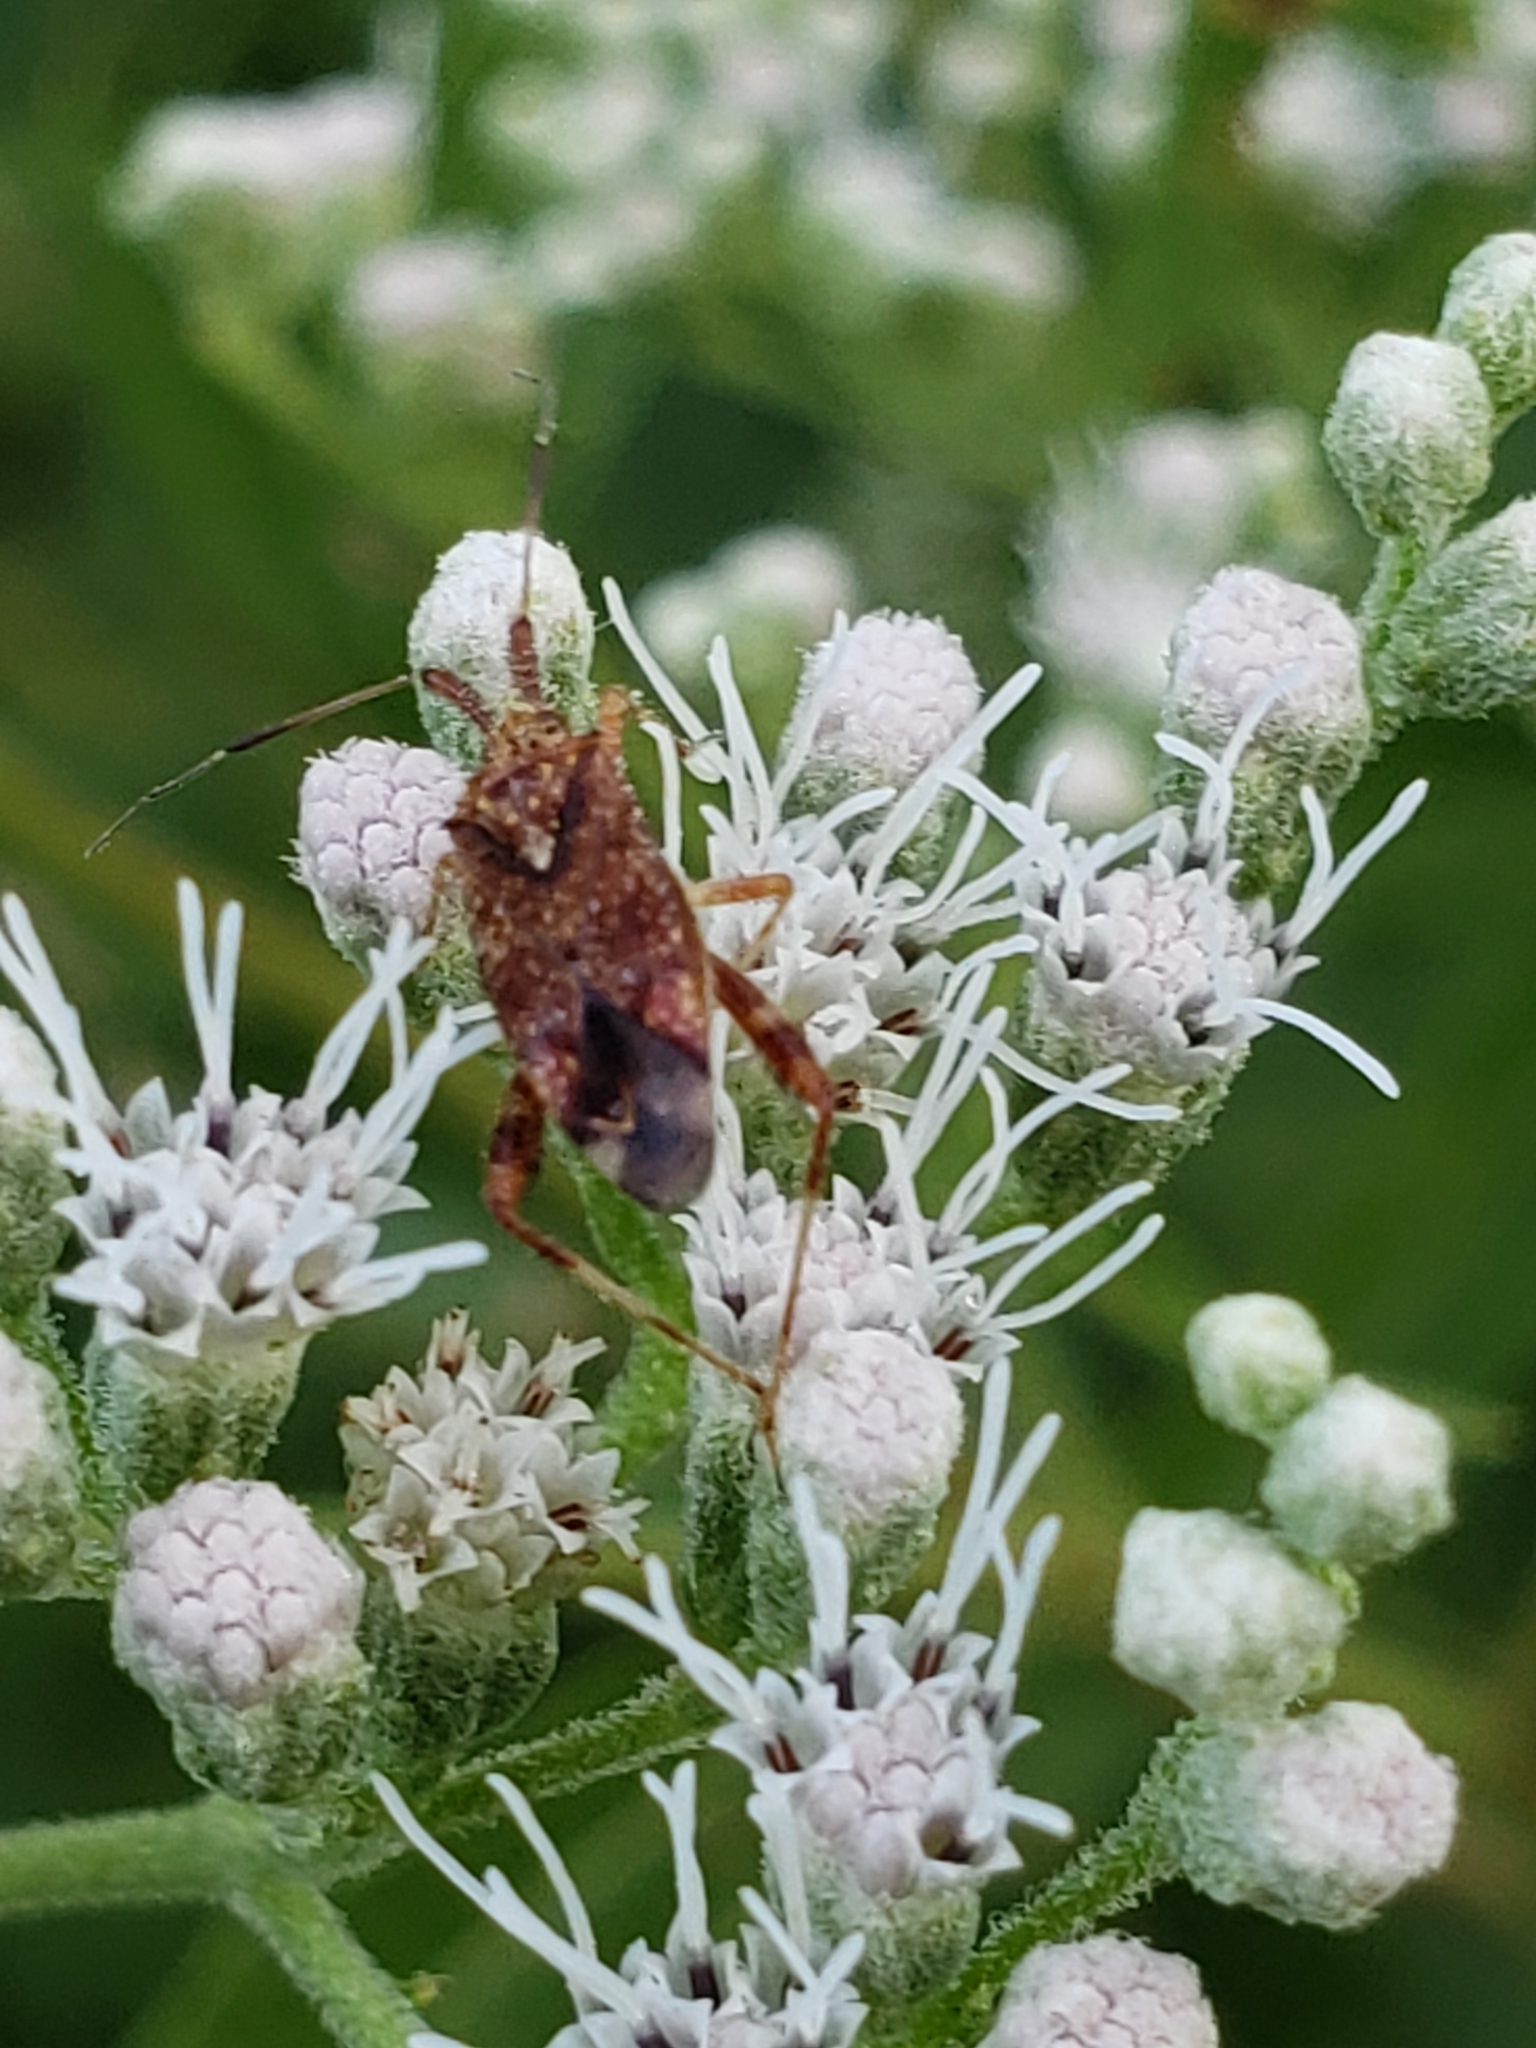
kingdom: Animalia
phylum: Arthropoda
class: Insecta
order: Hemiptera
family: Miridae
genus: Neurocolpus
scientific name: Neurocolpus nubilus
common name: Clouded plant bug
